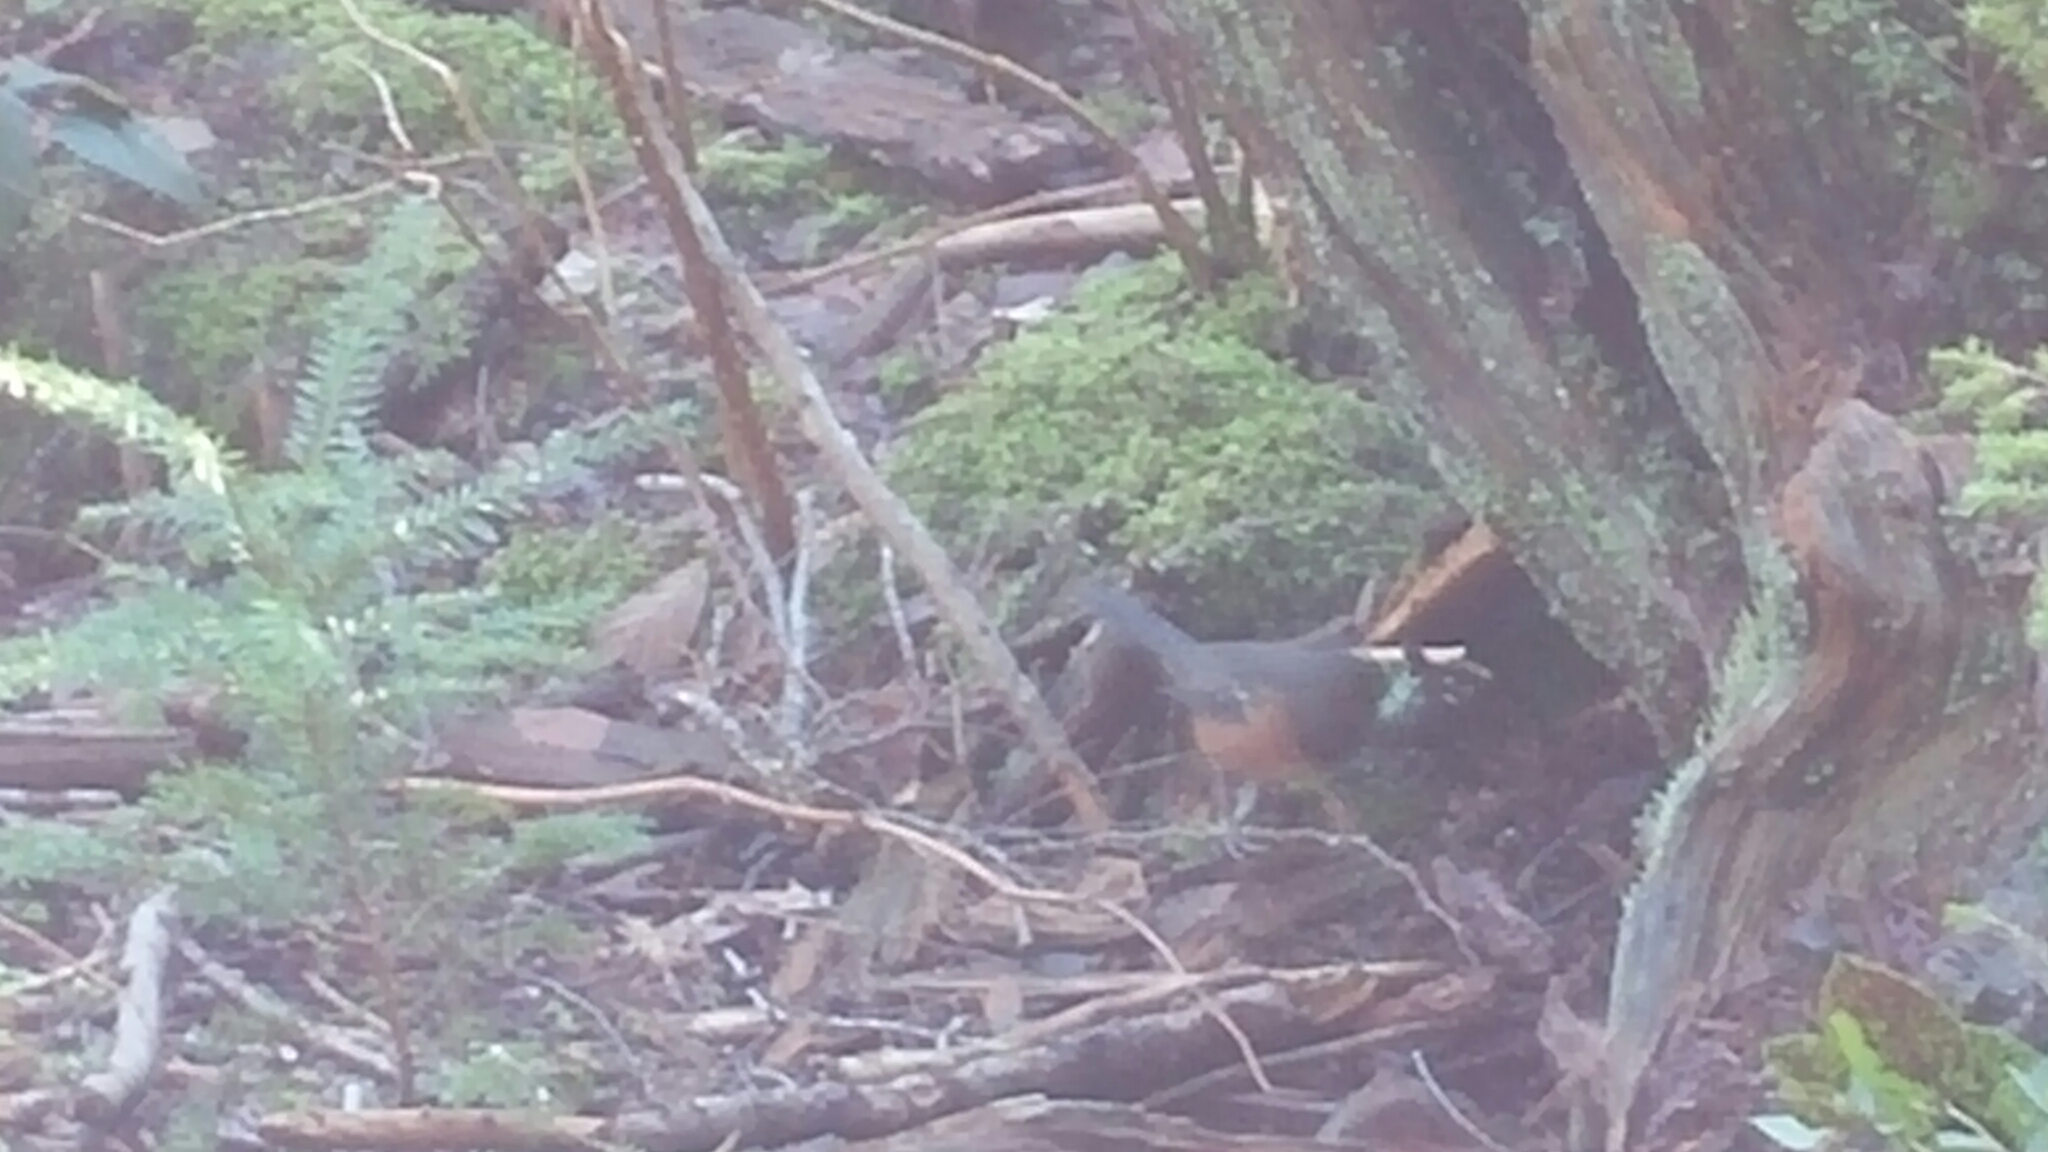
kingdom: Animalia
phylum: Chordata
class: Aves
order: Passeriformes
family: Passerellidae
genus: Pipilo
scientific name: Pipilo maculatus
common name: Spotted towhee
